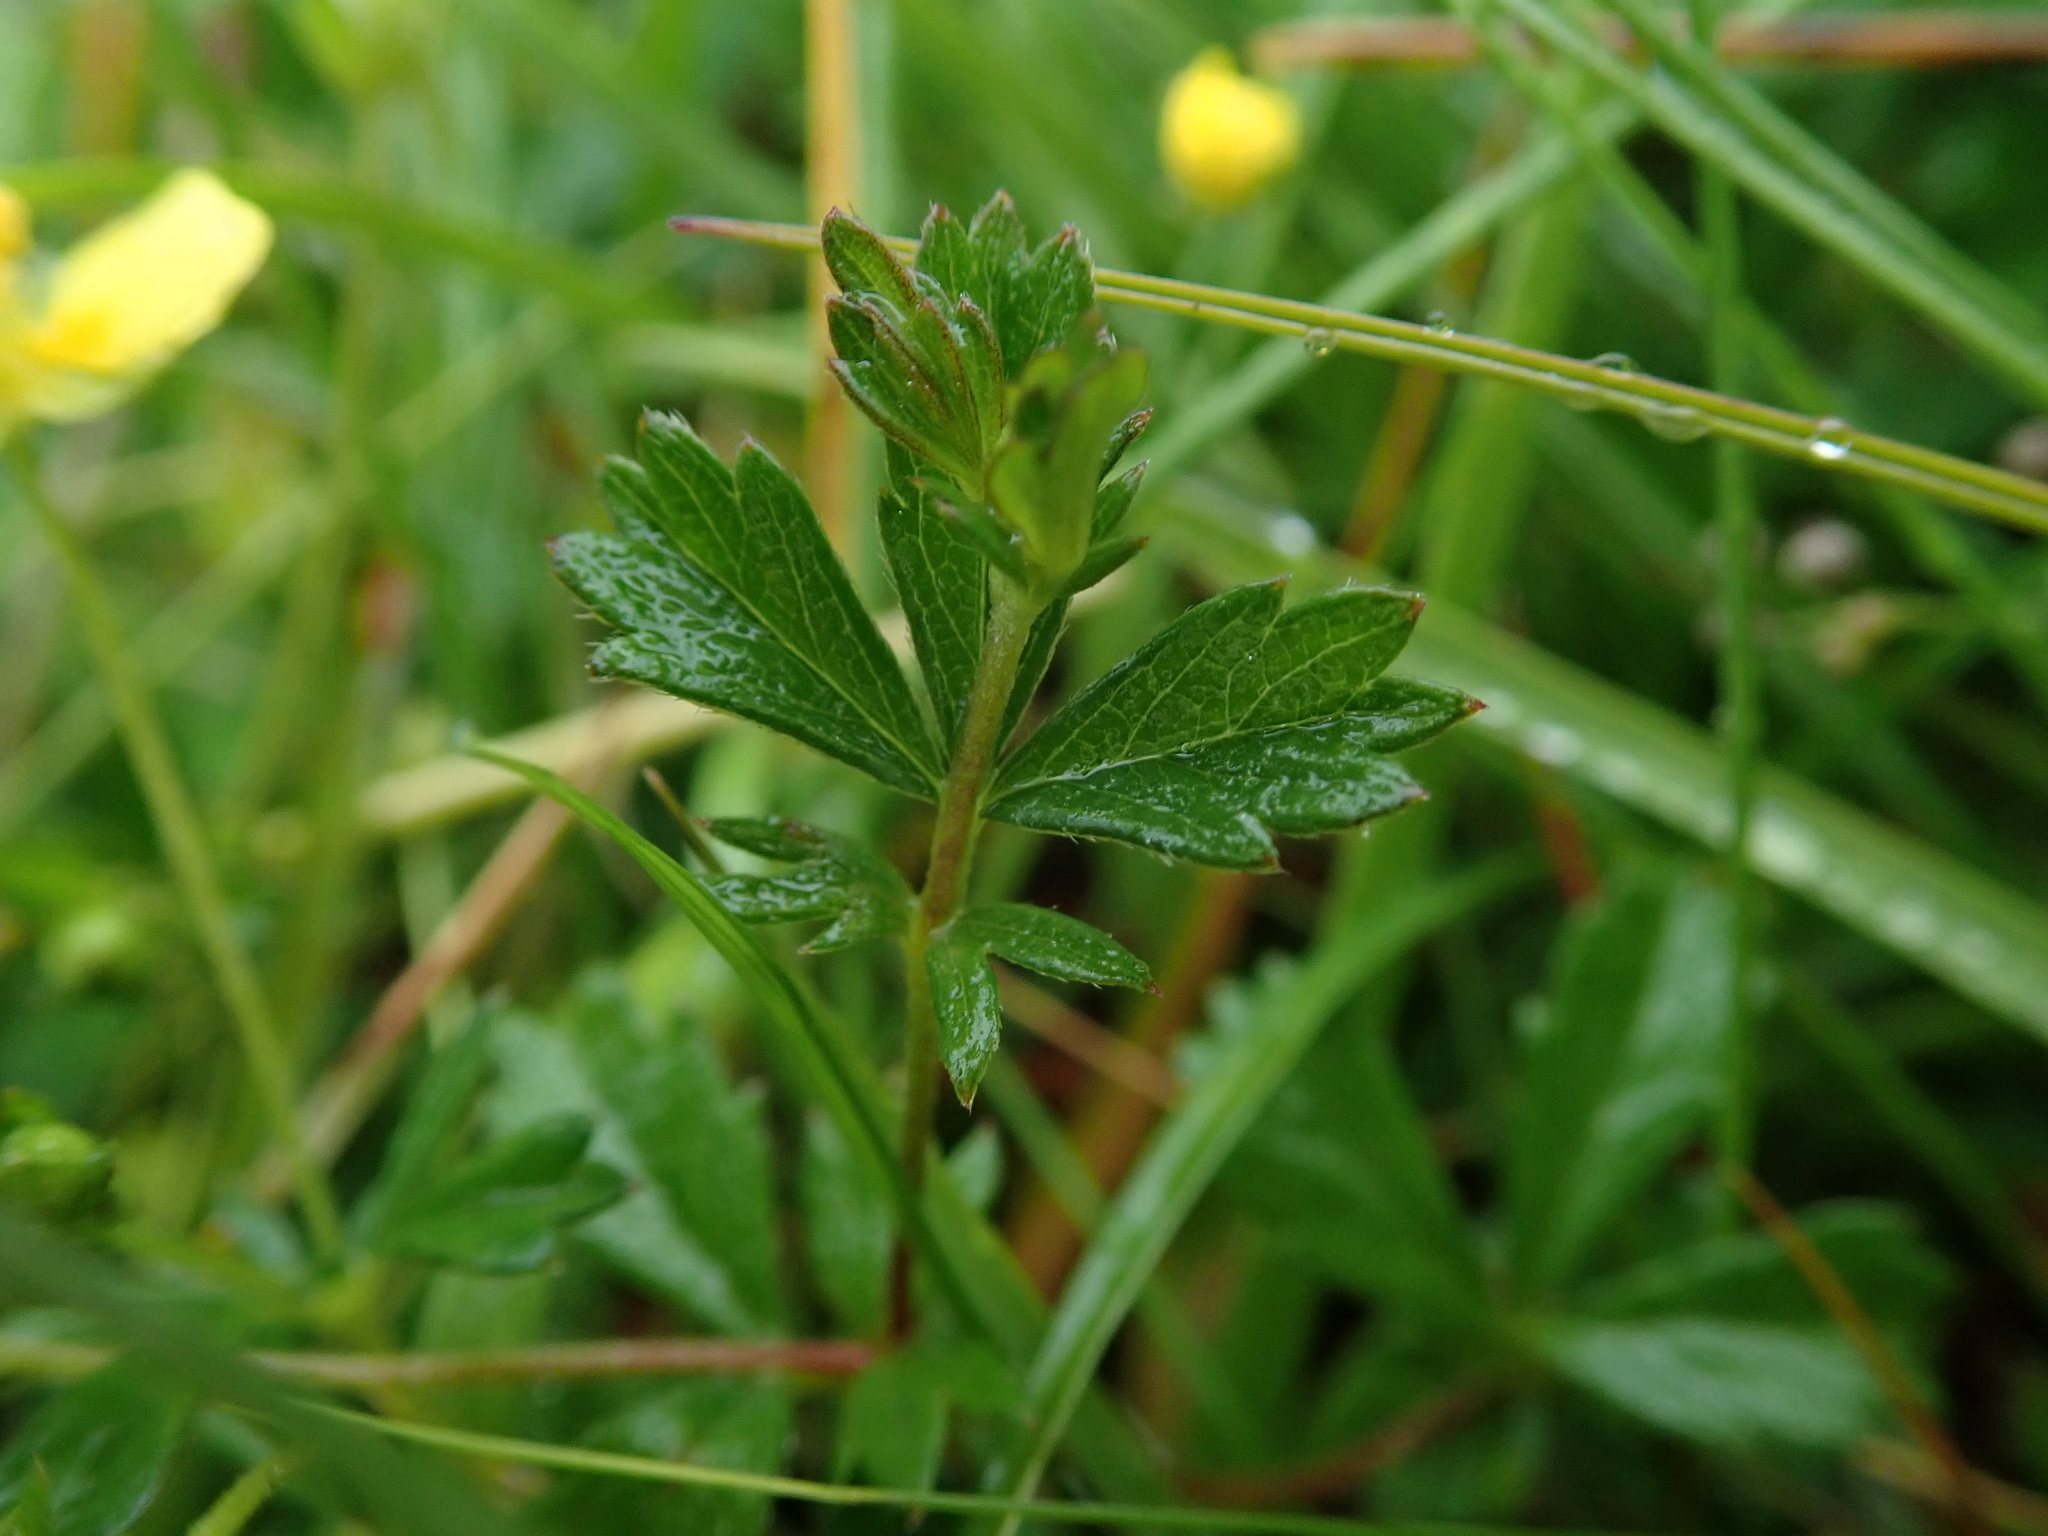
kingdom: Plantae
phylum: Tracheophyta
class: Magnoliopsida
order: Rosales
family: Rosaceae
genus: Potentilla
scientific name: Potentilla erecta
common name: Tormentil
